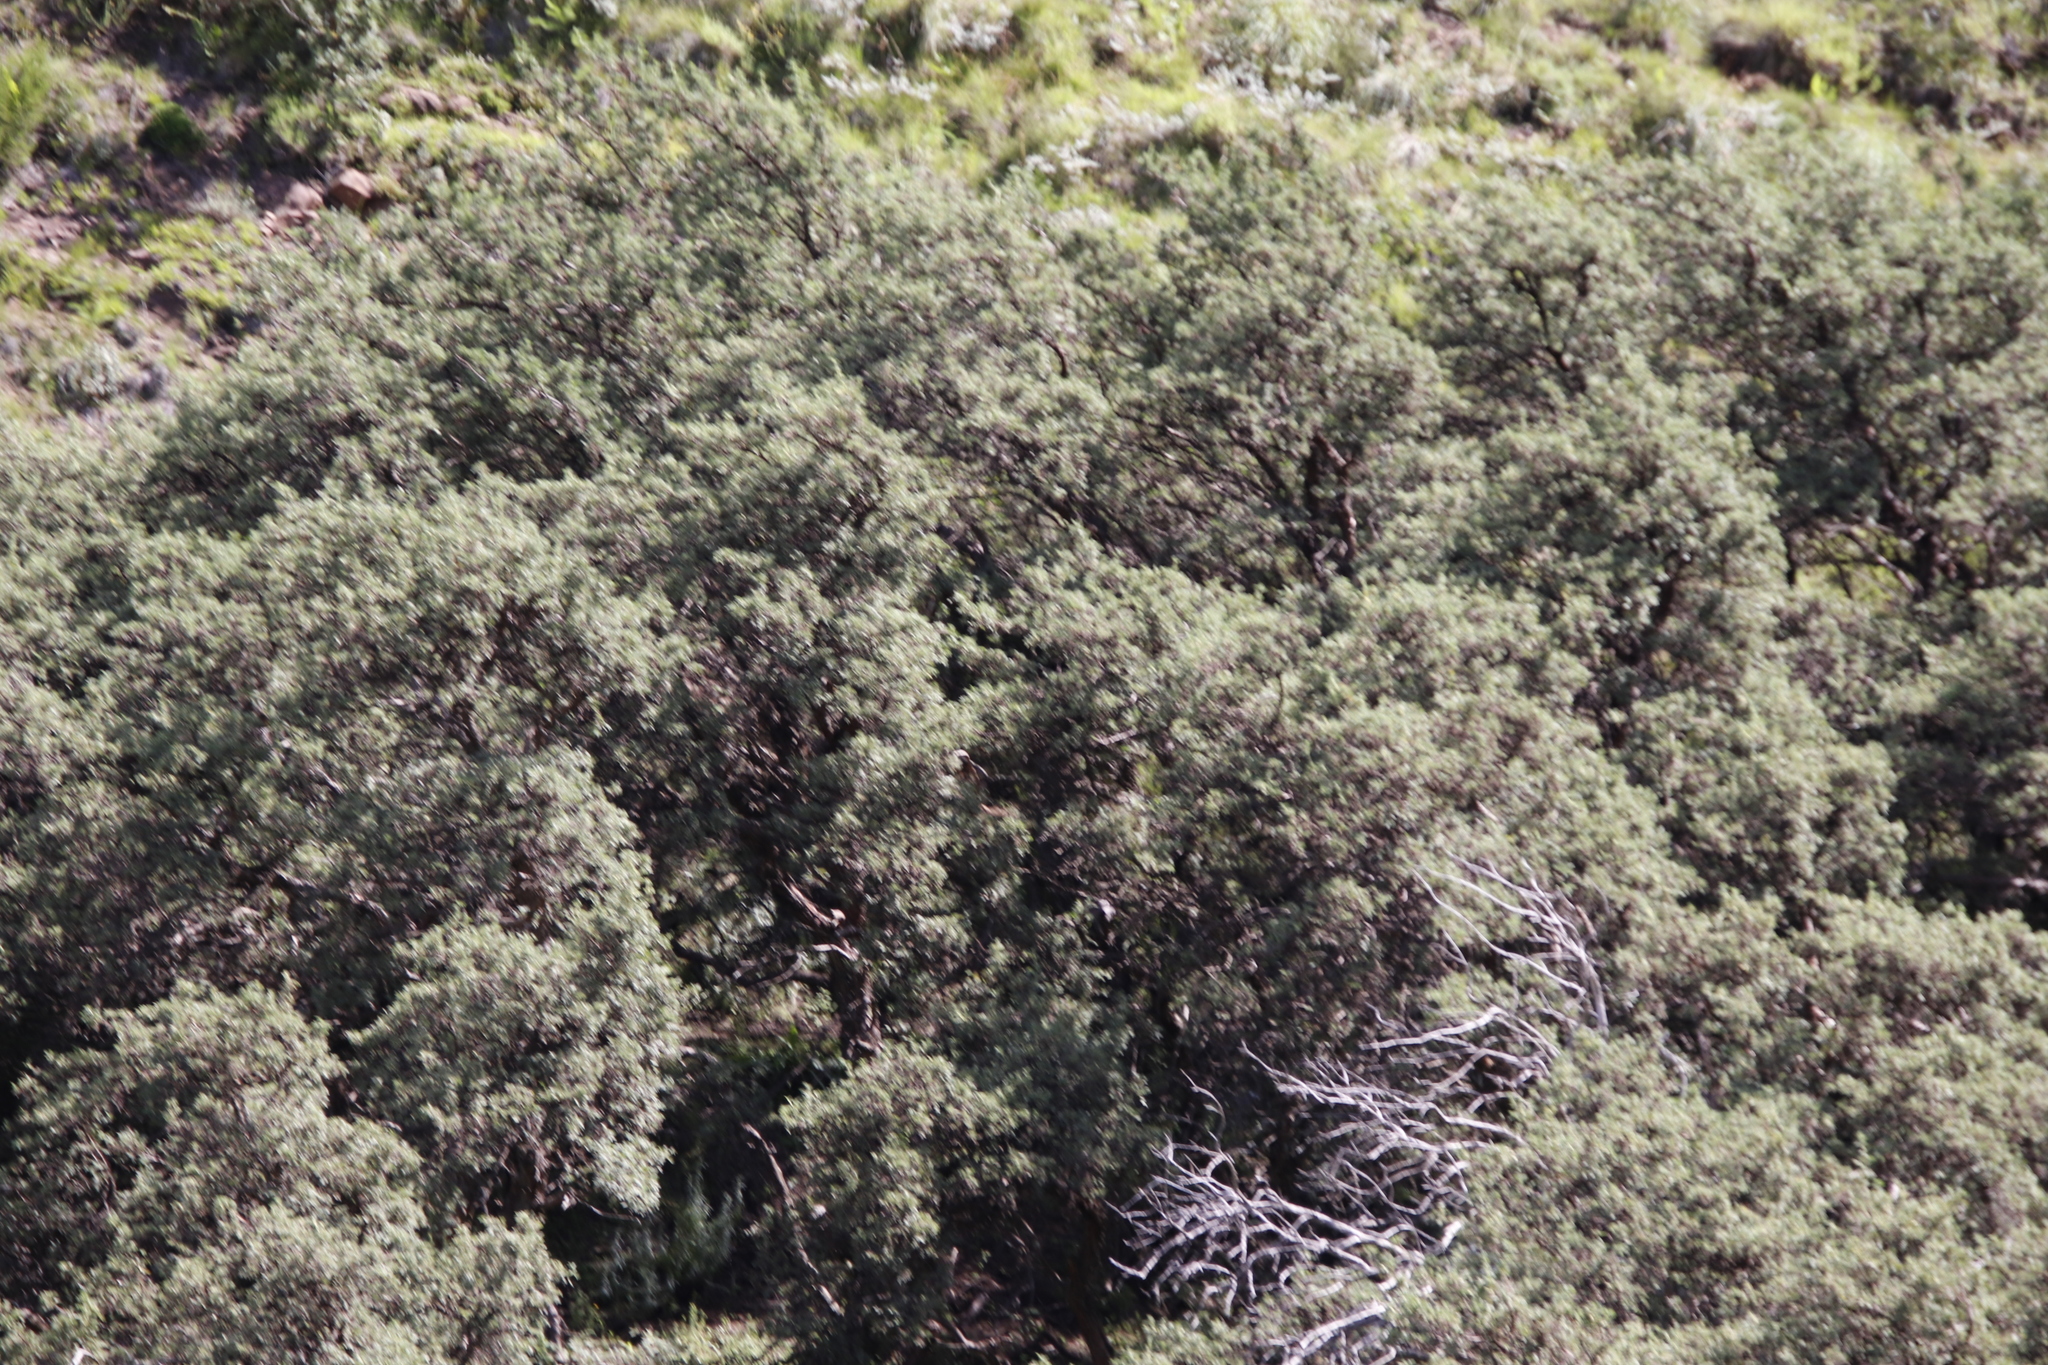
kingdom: Plantae
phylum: Tracheophyta
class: Magnoliopsida
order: Rosales
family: Rosaceae
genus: Leucosidea
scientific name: Leucosidea sericea
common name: Oldwood
